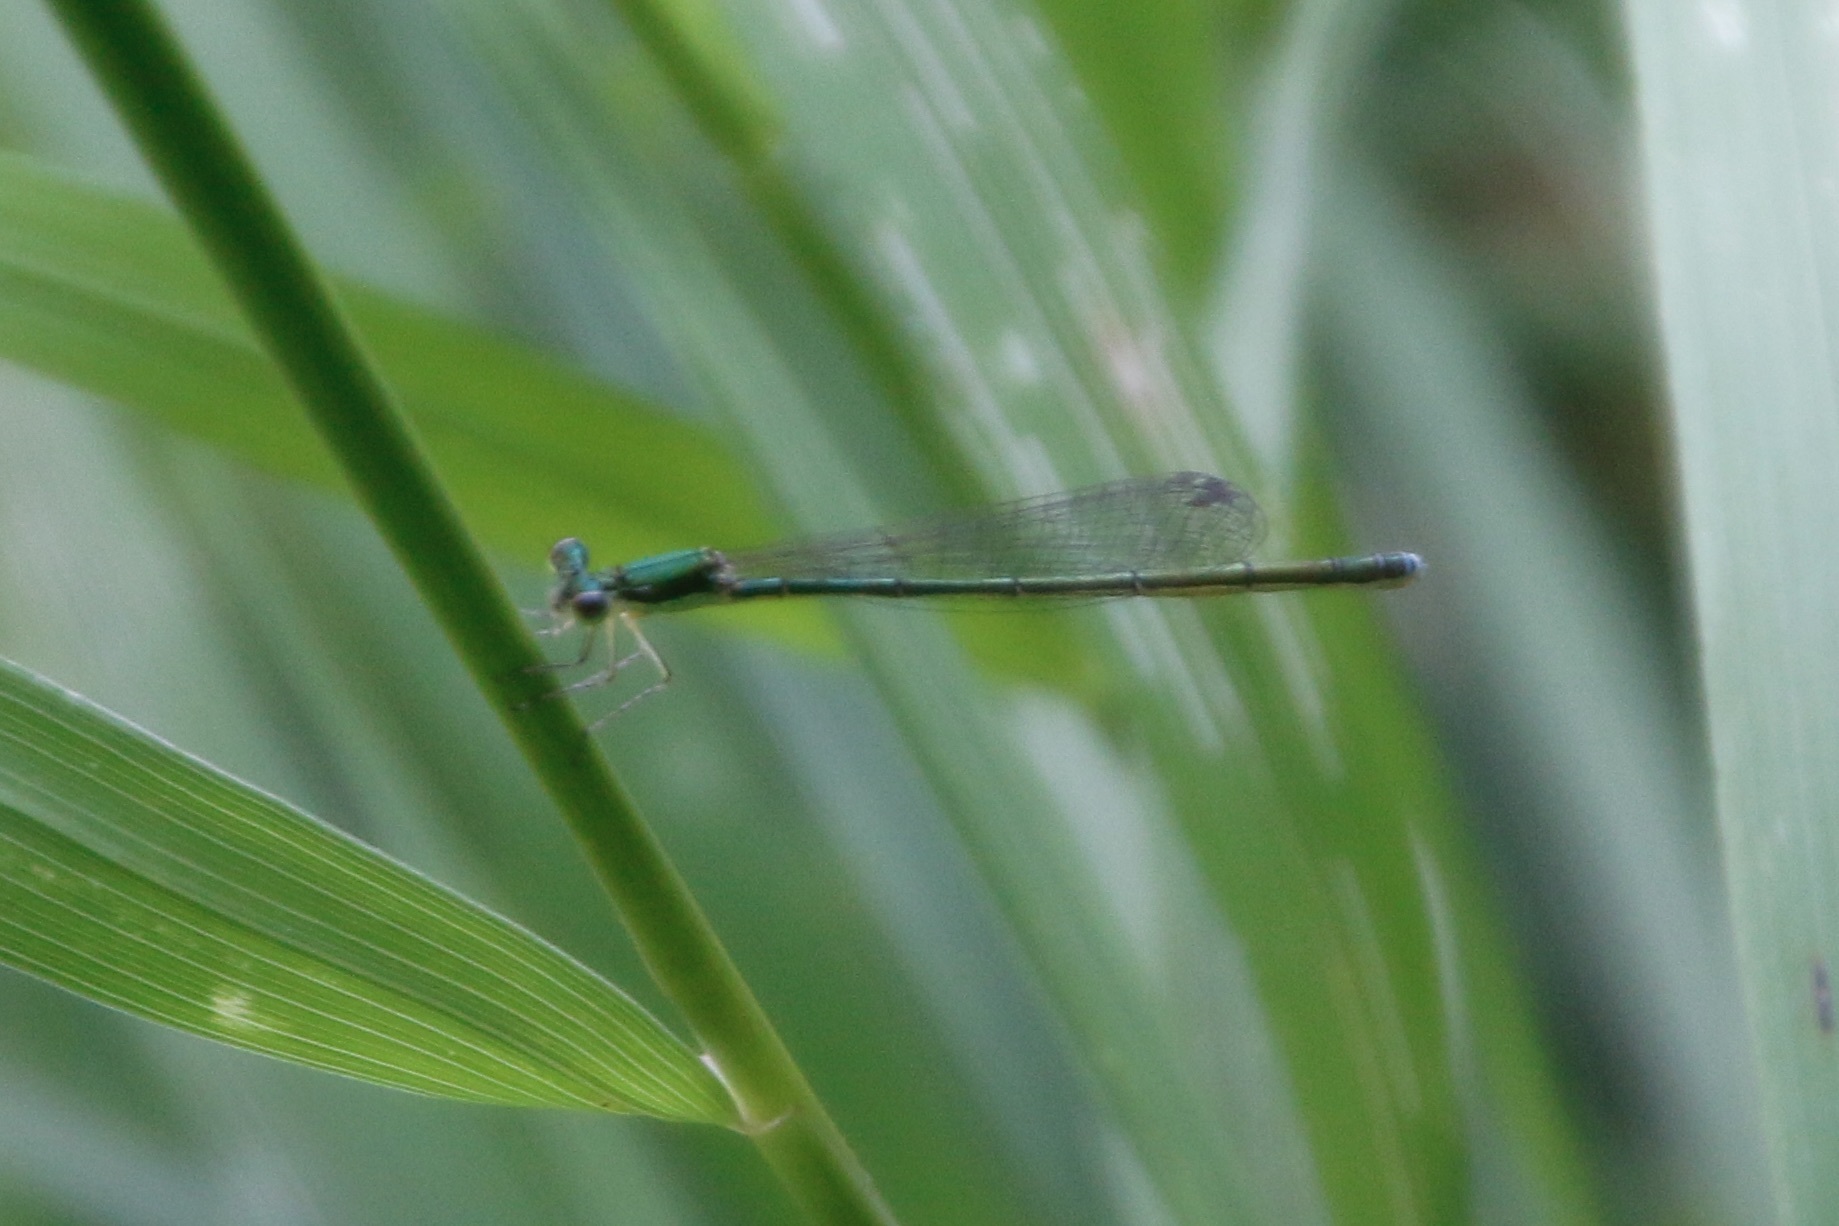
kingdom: Animalia
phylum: Arthropoda
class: Insecta
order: Odonata
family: Coenagrionidae
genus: Nehalennia
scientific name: Nehalennia irene
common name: Sedge sprite
